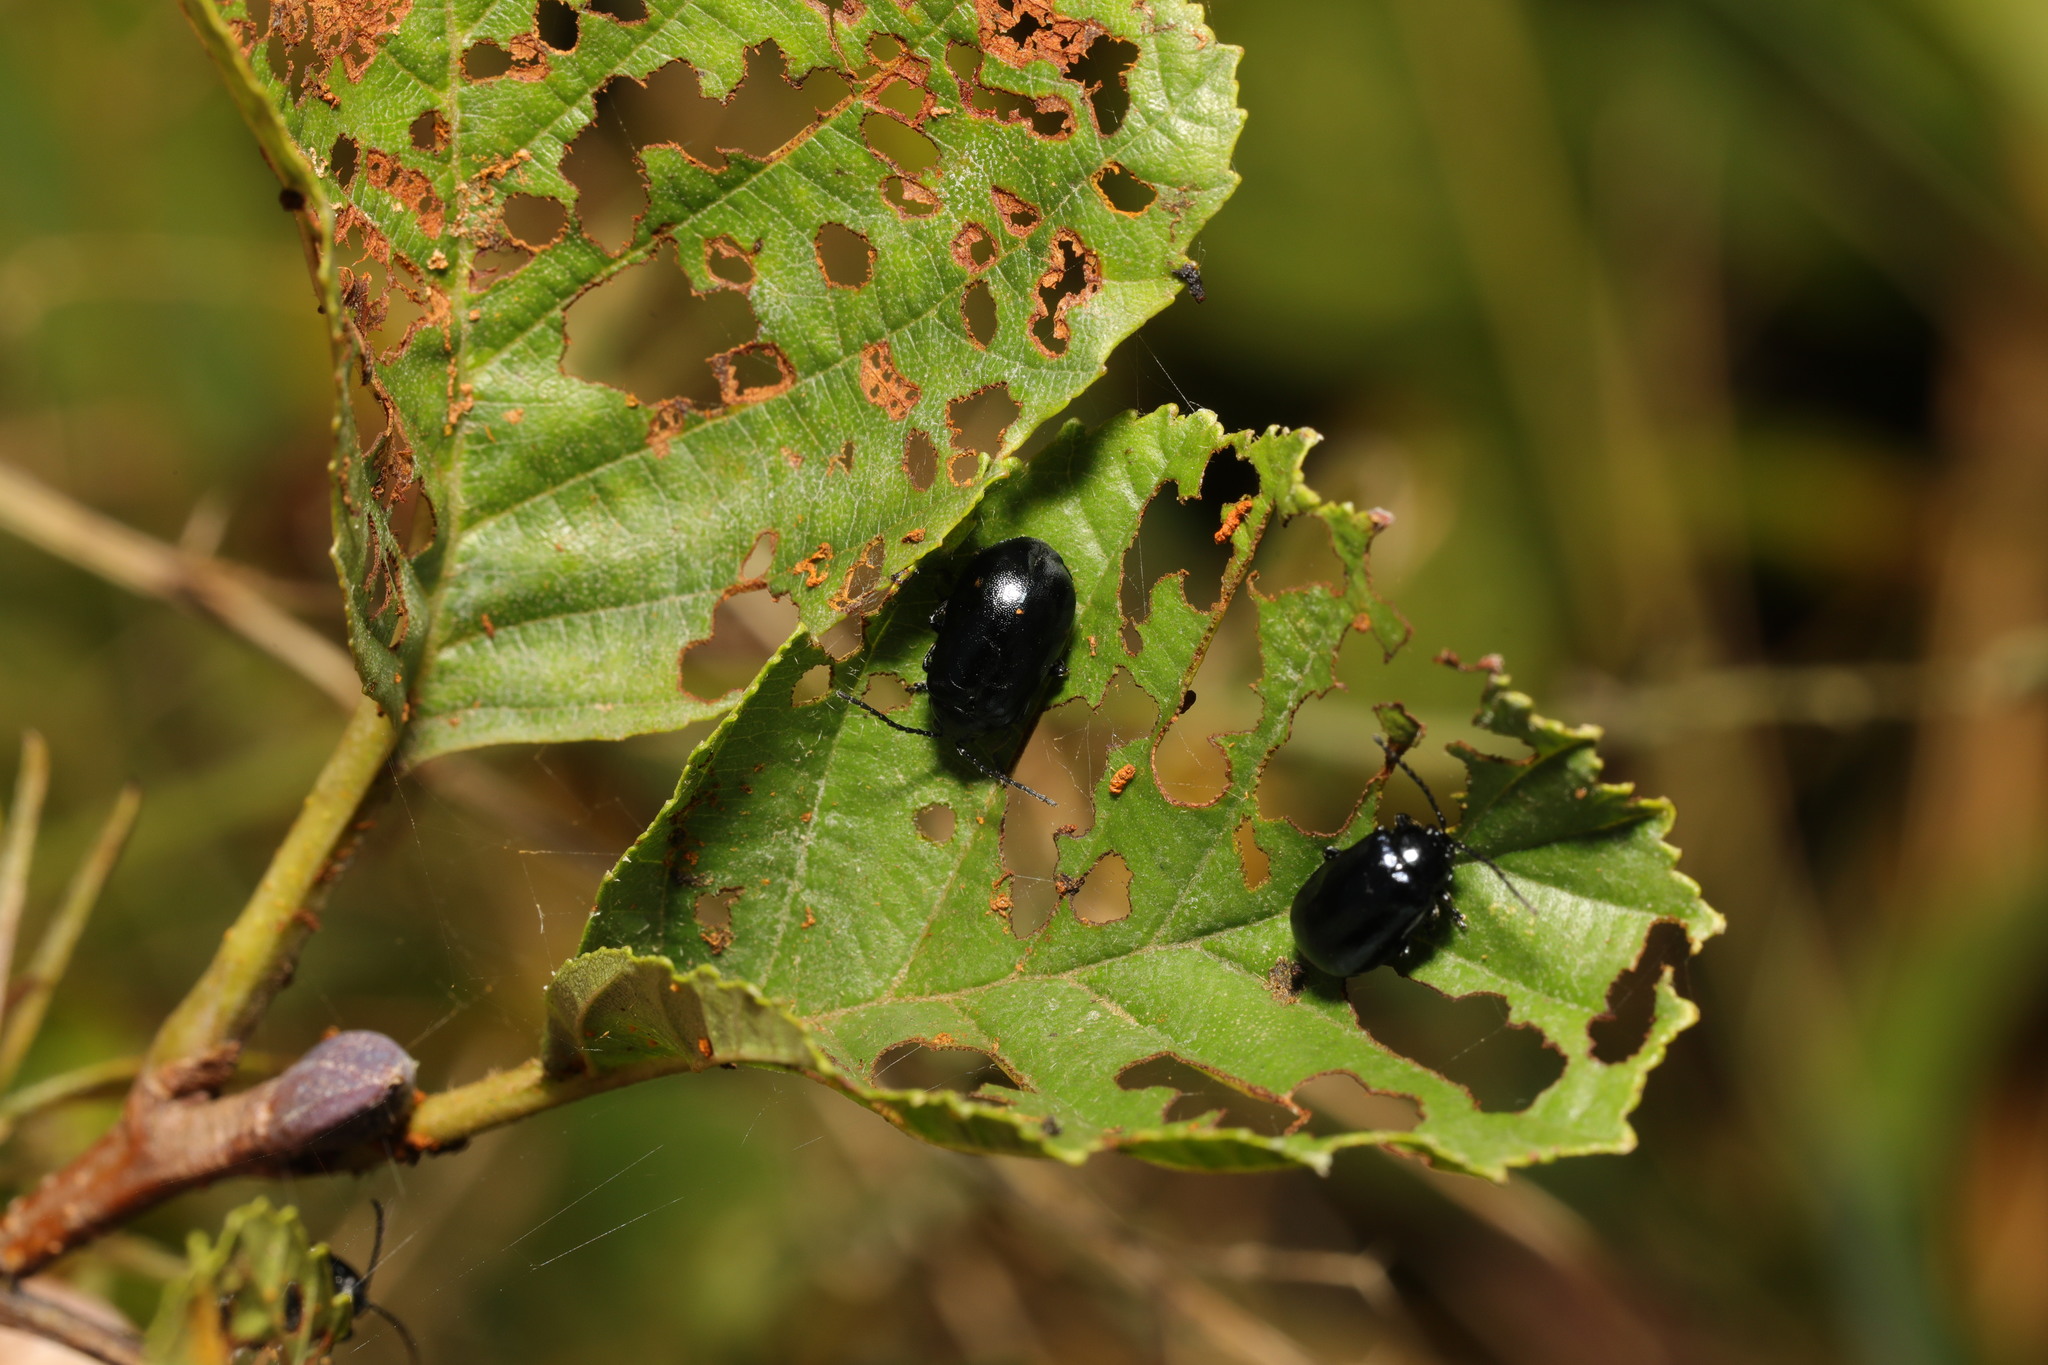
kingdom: Animalia
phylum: Arthropoda
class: Insecta
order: Coleoptera
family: Chrysomelidae
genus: Agelastica
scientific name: Agelastica alni
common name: Alder leaf beetle
